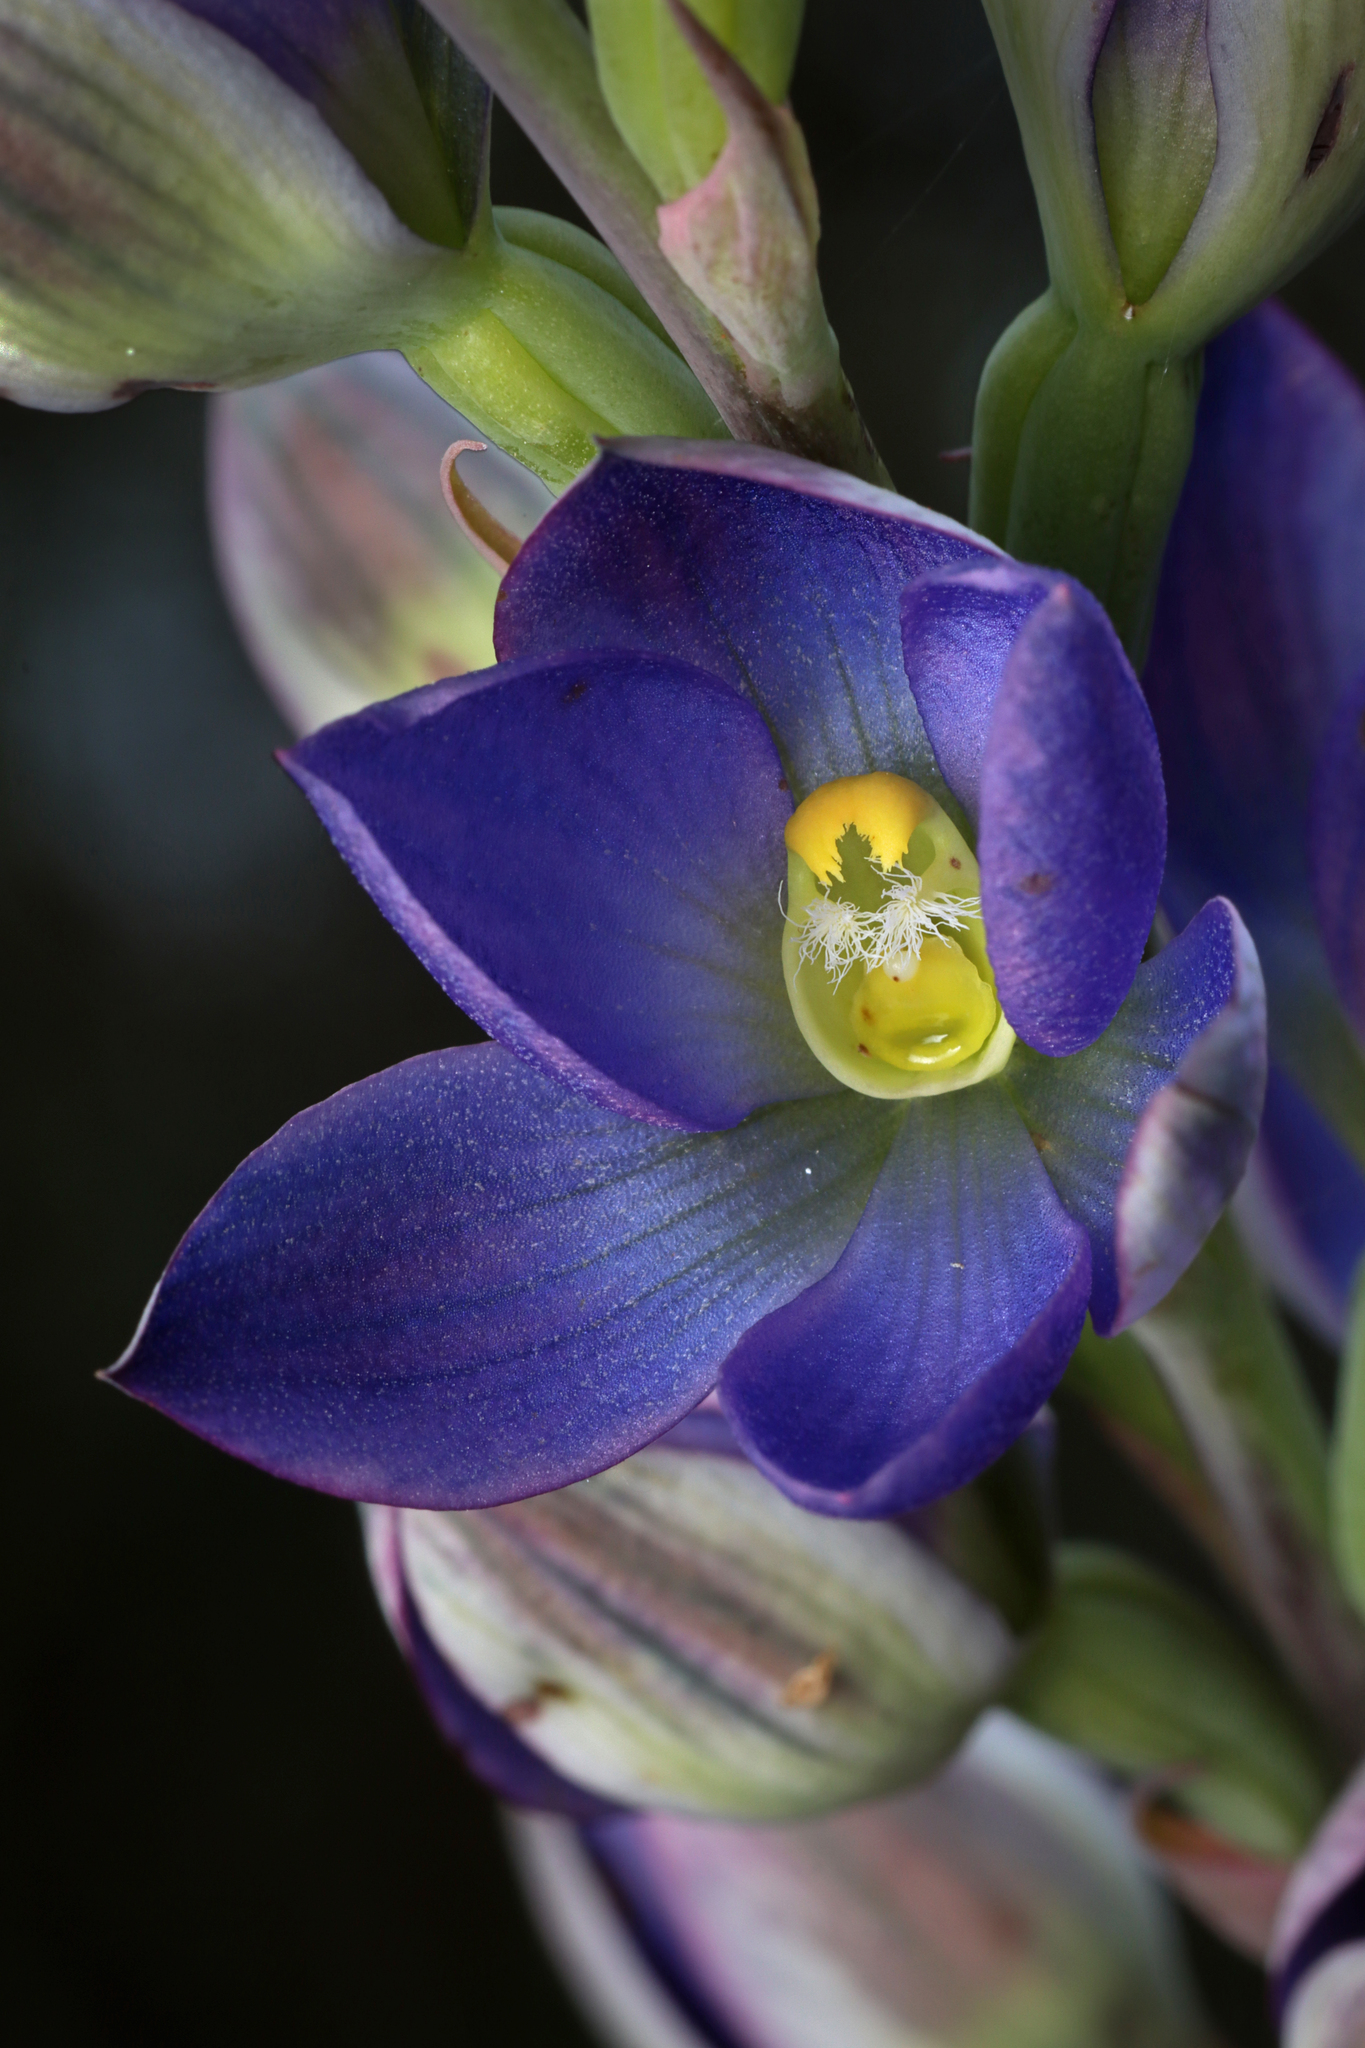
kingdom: Plantae
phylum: Tracheophyta
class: Liliopsida
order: Asparagales
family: Orchidaceae
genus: Thelymitra
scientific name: Thelymitra grandiflora
